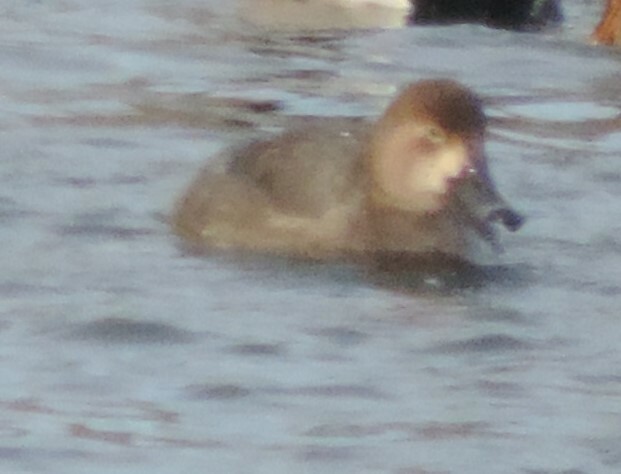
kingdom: Animalia
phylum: Chordata
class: Aves
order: Anseriformes
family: Anatidae
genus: Aythya
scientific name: Aythya americana
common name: Redhead
